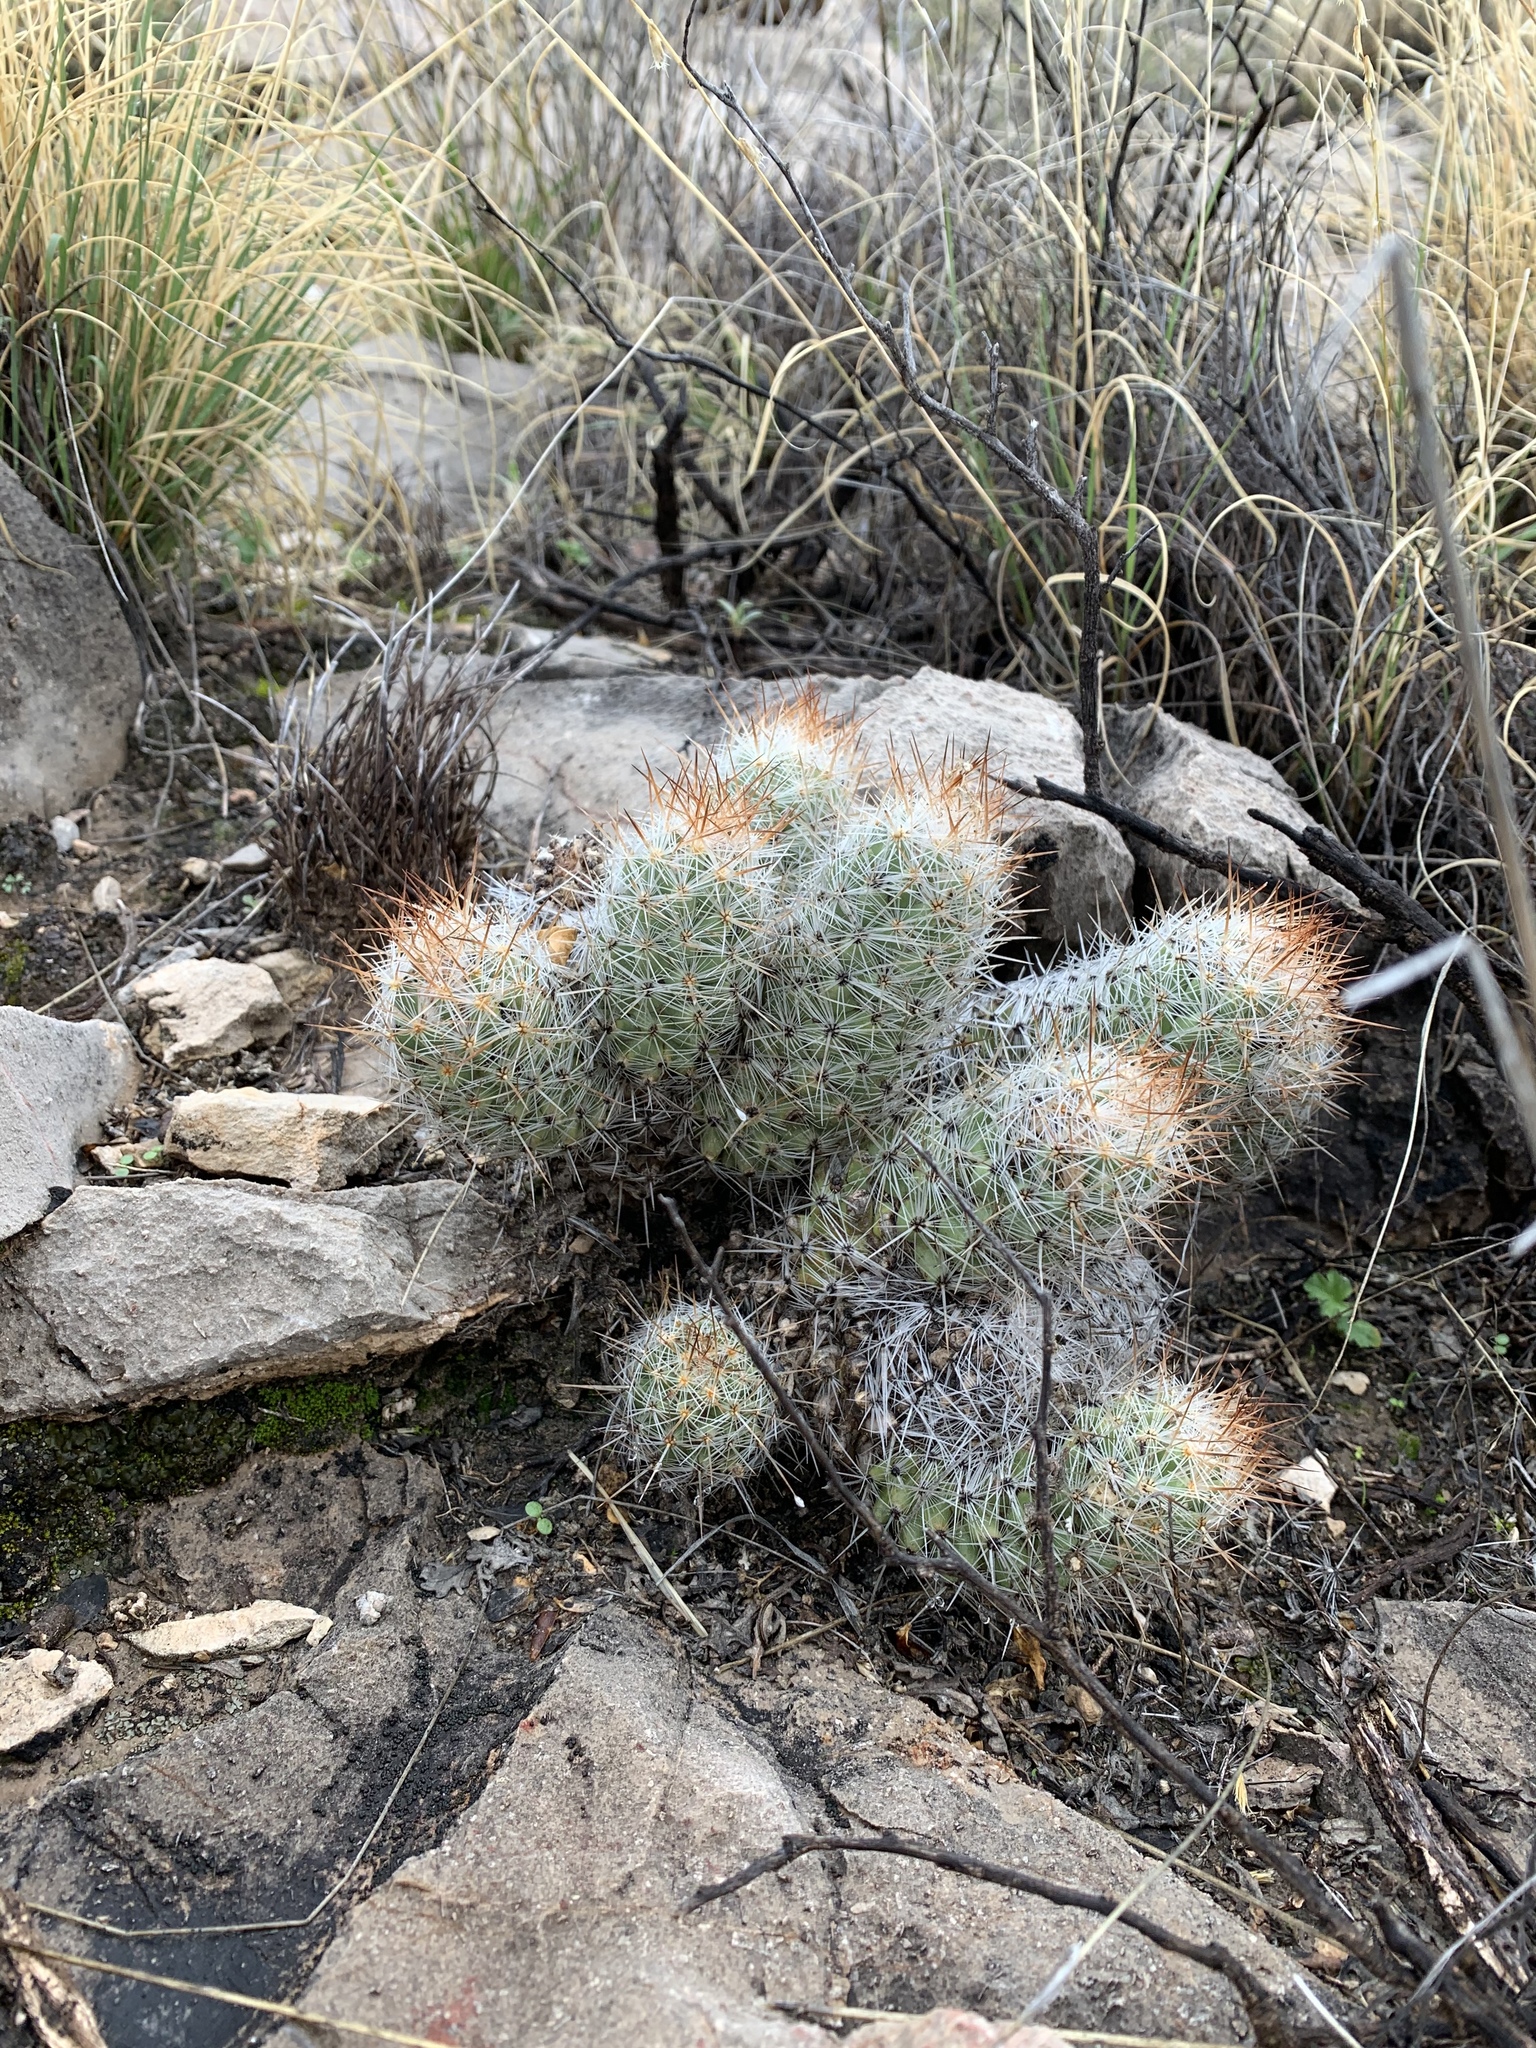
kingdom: Plantae
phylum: Tracheophyta
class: Magnoliopsida
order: Caryophyllales
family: Cactaceae
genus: Pelecyphora
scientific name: Pelecyphora tuberculosa
